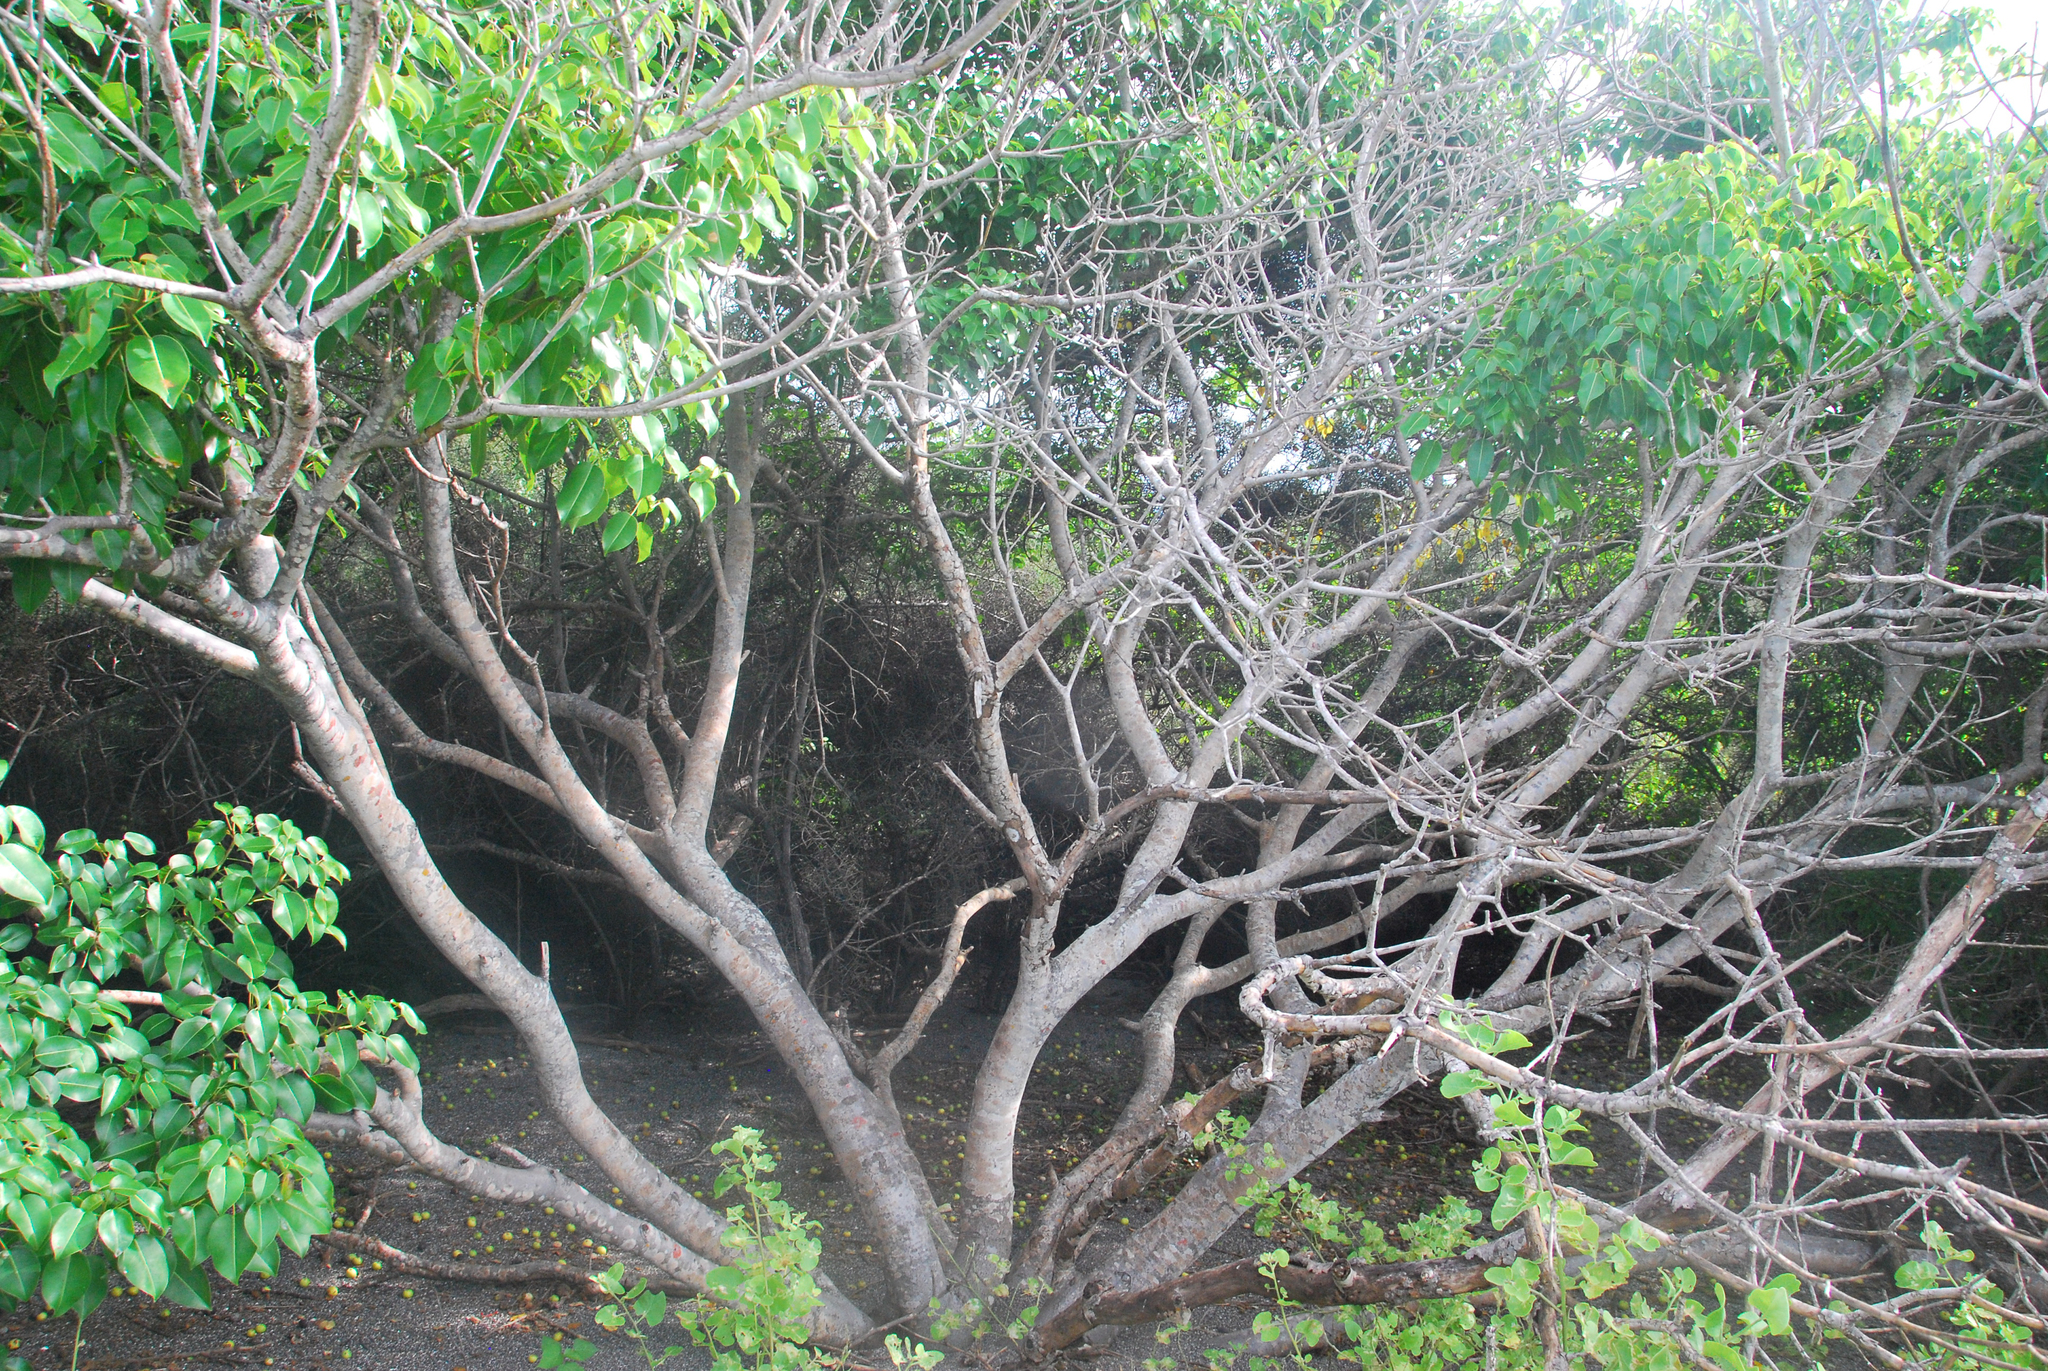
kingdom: Plantae
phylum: Tracheophyta
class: Magnoliopsida
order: Malpighiales
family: Euphorbiaceae
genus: Hippomane
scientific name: Hippomane mancinella
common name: Manchineel
